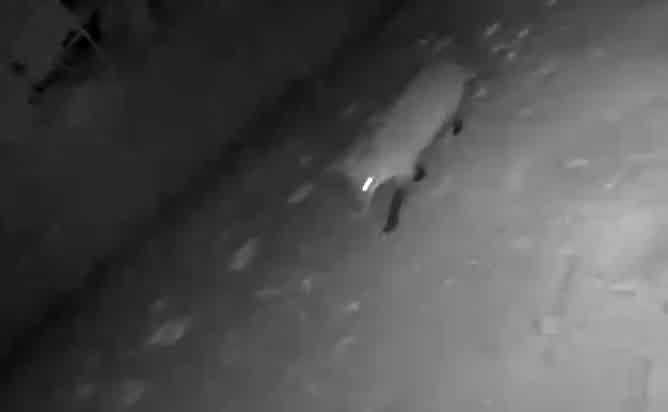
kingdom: Animalia
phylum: Chordata
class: Mammalia
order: Carnivora
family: Canidae
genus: Vulpes
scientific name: Vulpes vulpes
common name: Red fox
